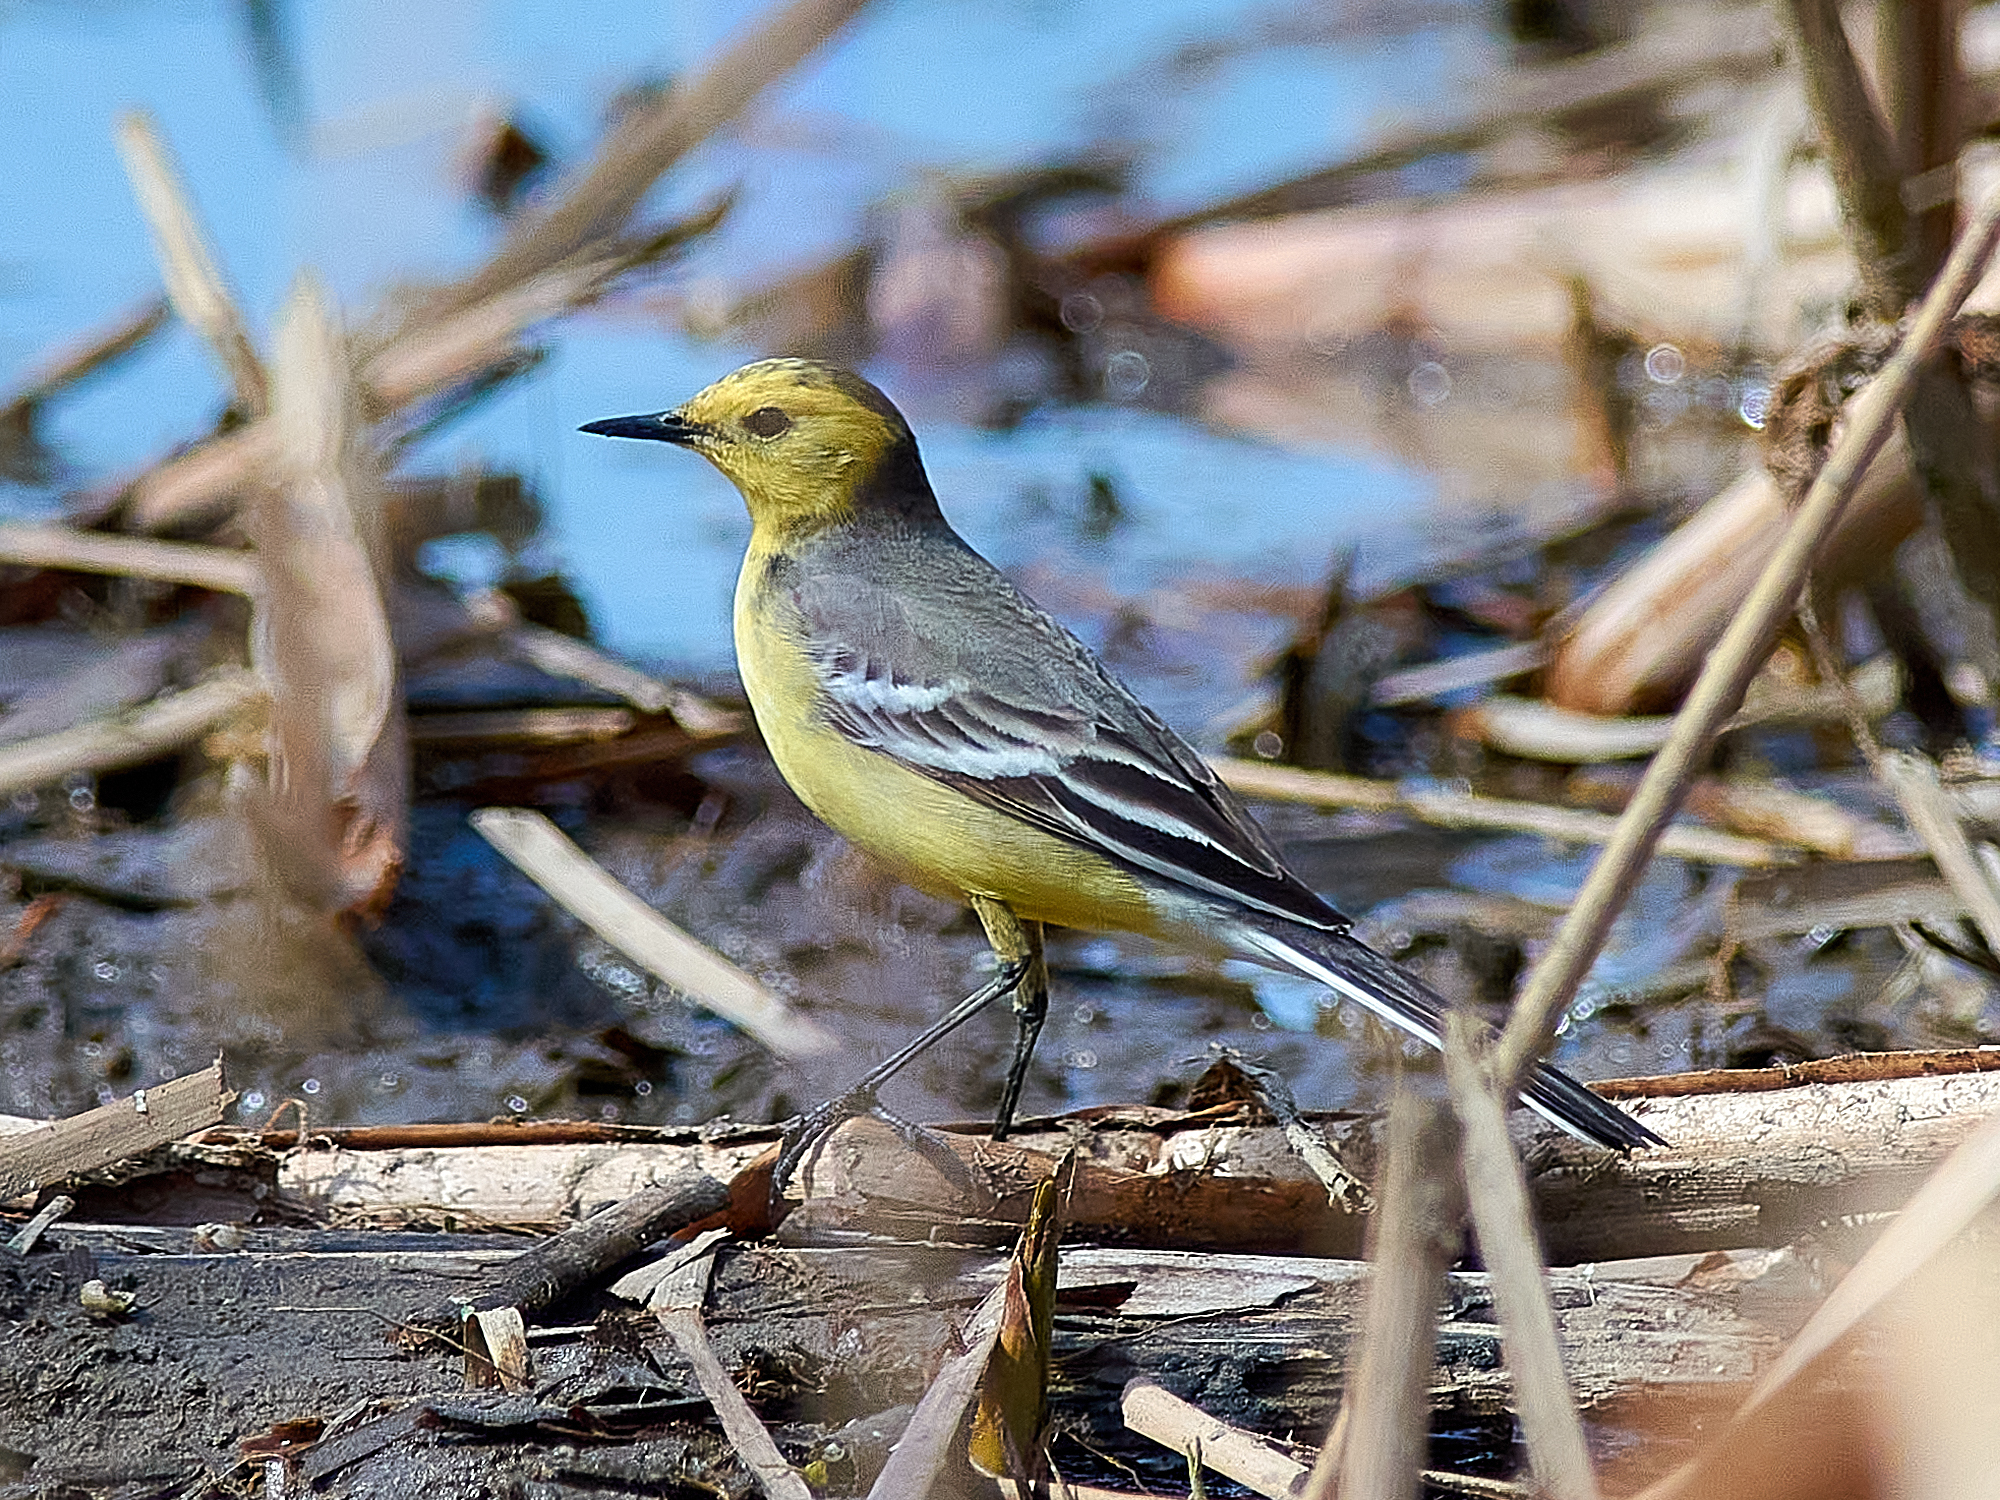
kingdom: Animalia
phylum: Chordata
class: Aves
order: Passeriformes
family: Motacillidae
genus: Motacilla
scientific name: Motacilla citreola
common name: Citrine wagtail
